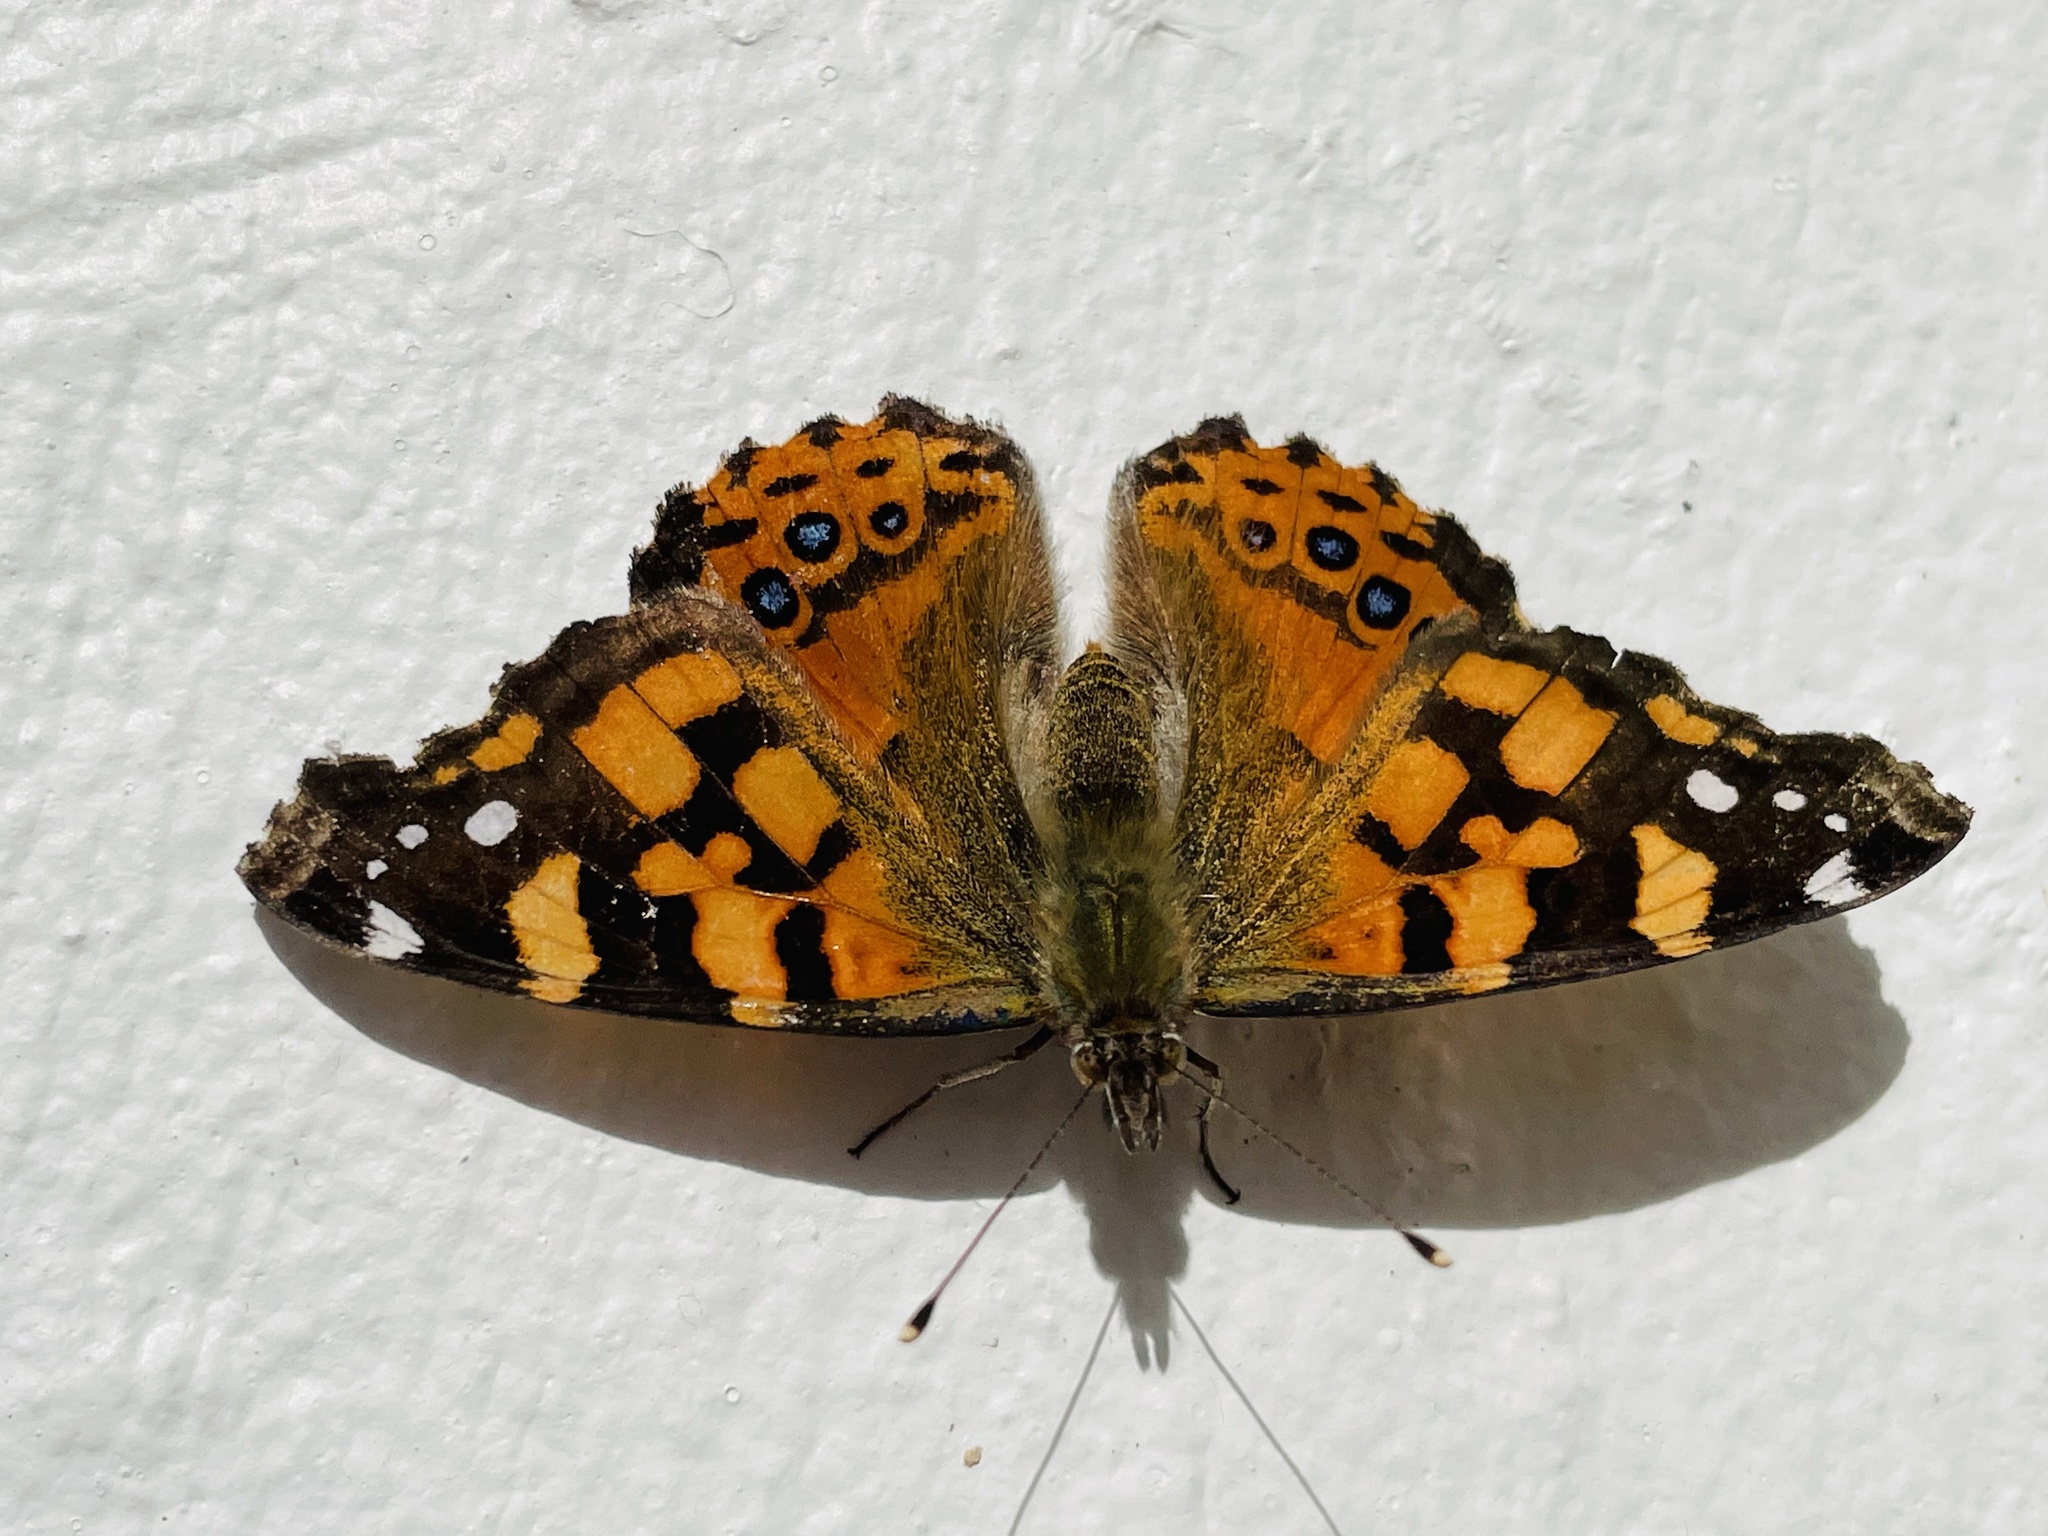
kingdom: Animalia
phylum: Arthropoda
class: Insecta
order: Lepidoptera
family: Nymphalidae
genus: Vanessa
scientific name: Vanessa carye
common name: Subtropical lady
